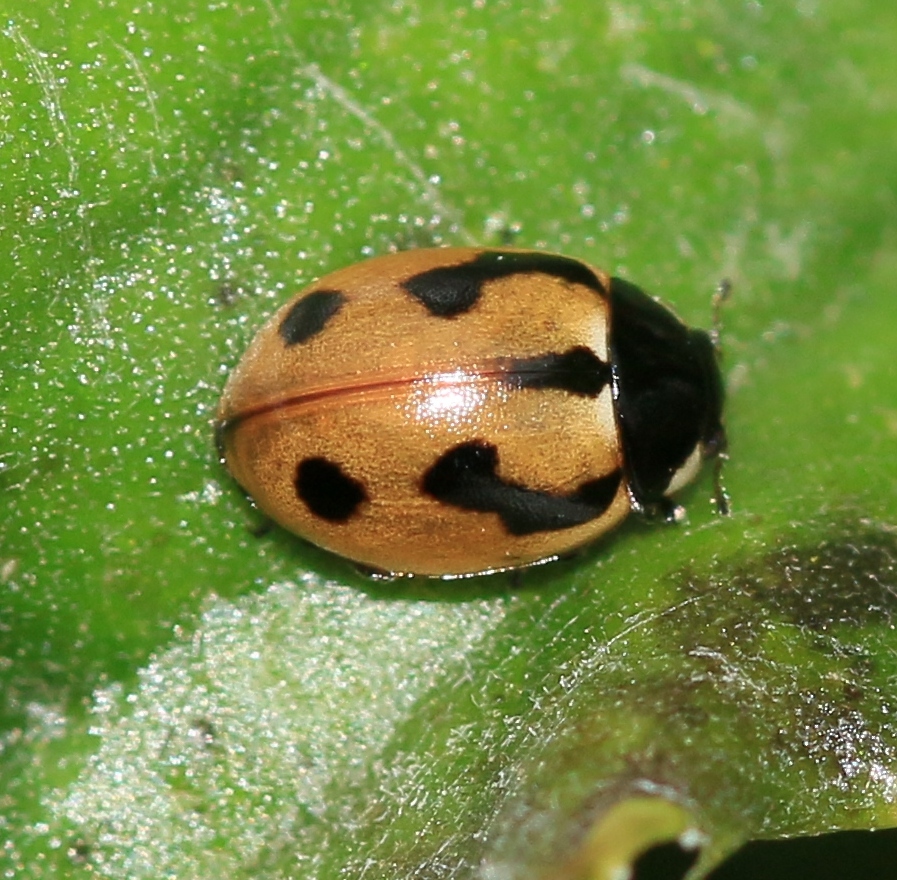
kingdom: Animalia
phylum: Arthropoda
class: Insecta
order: Coleoptera
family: Coccinellidae
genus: Coccinella
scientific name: Coccinella hieroglyphica
